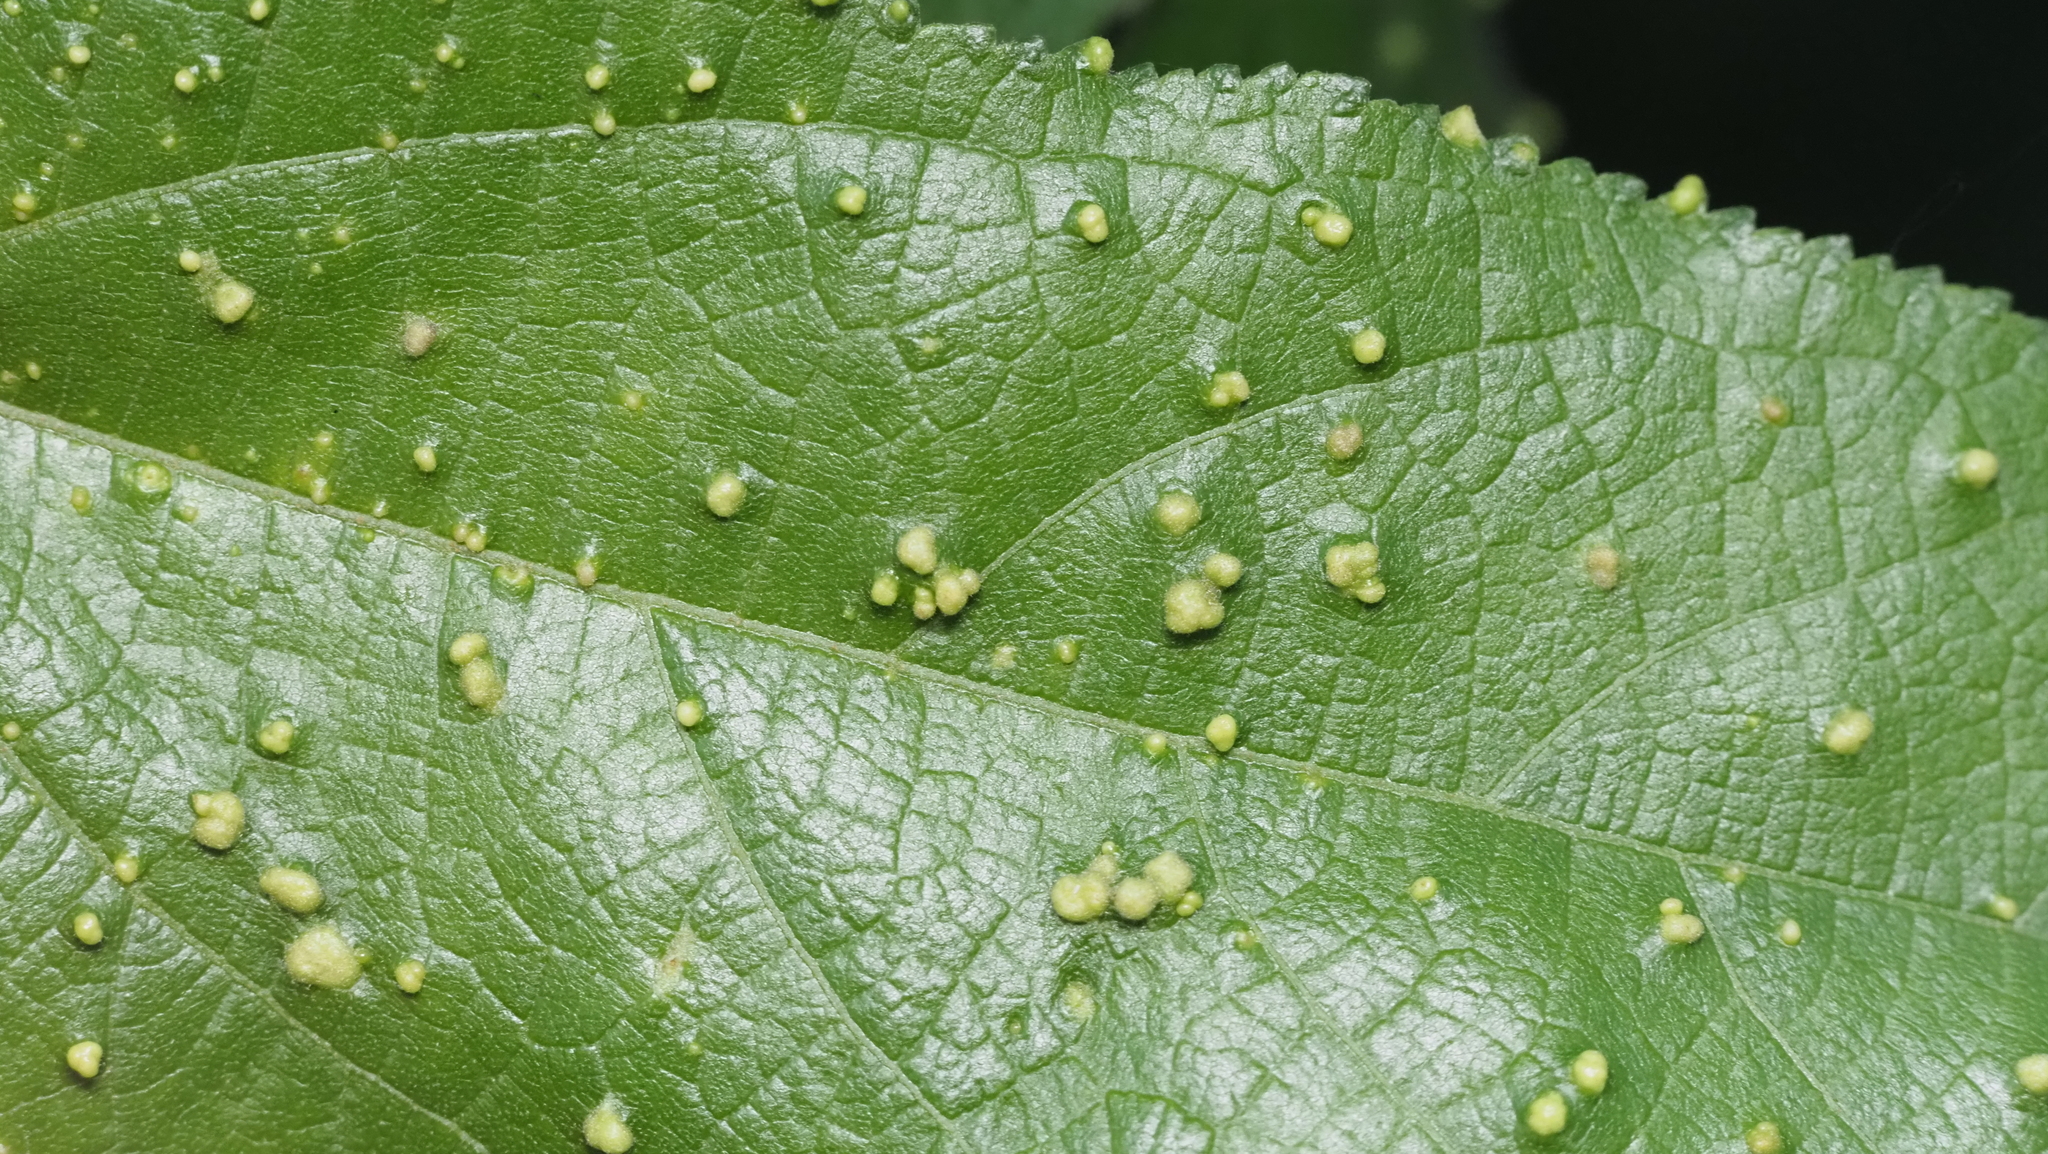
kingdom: Animalia
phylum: Arthropoda
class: Arachnida
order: Trombidiformes
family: Eriophyidae
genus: Aceria
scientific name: Aceria
